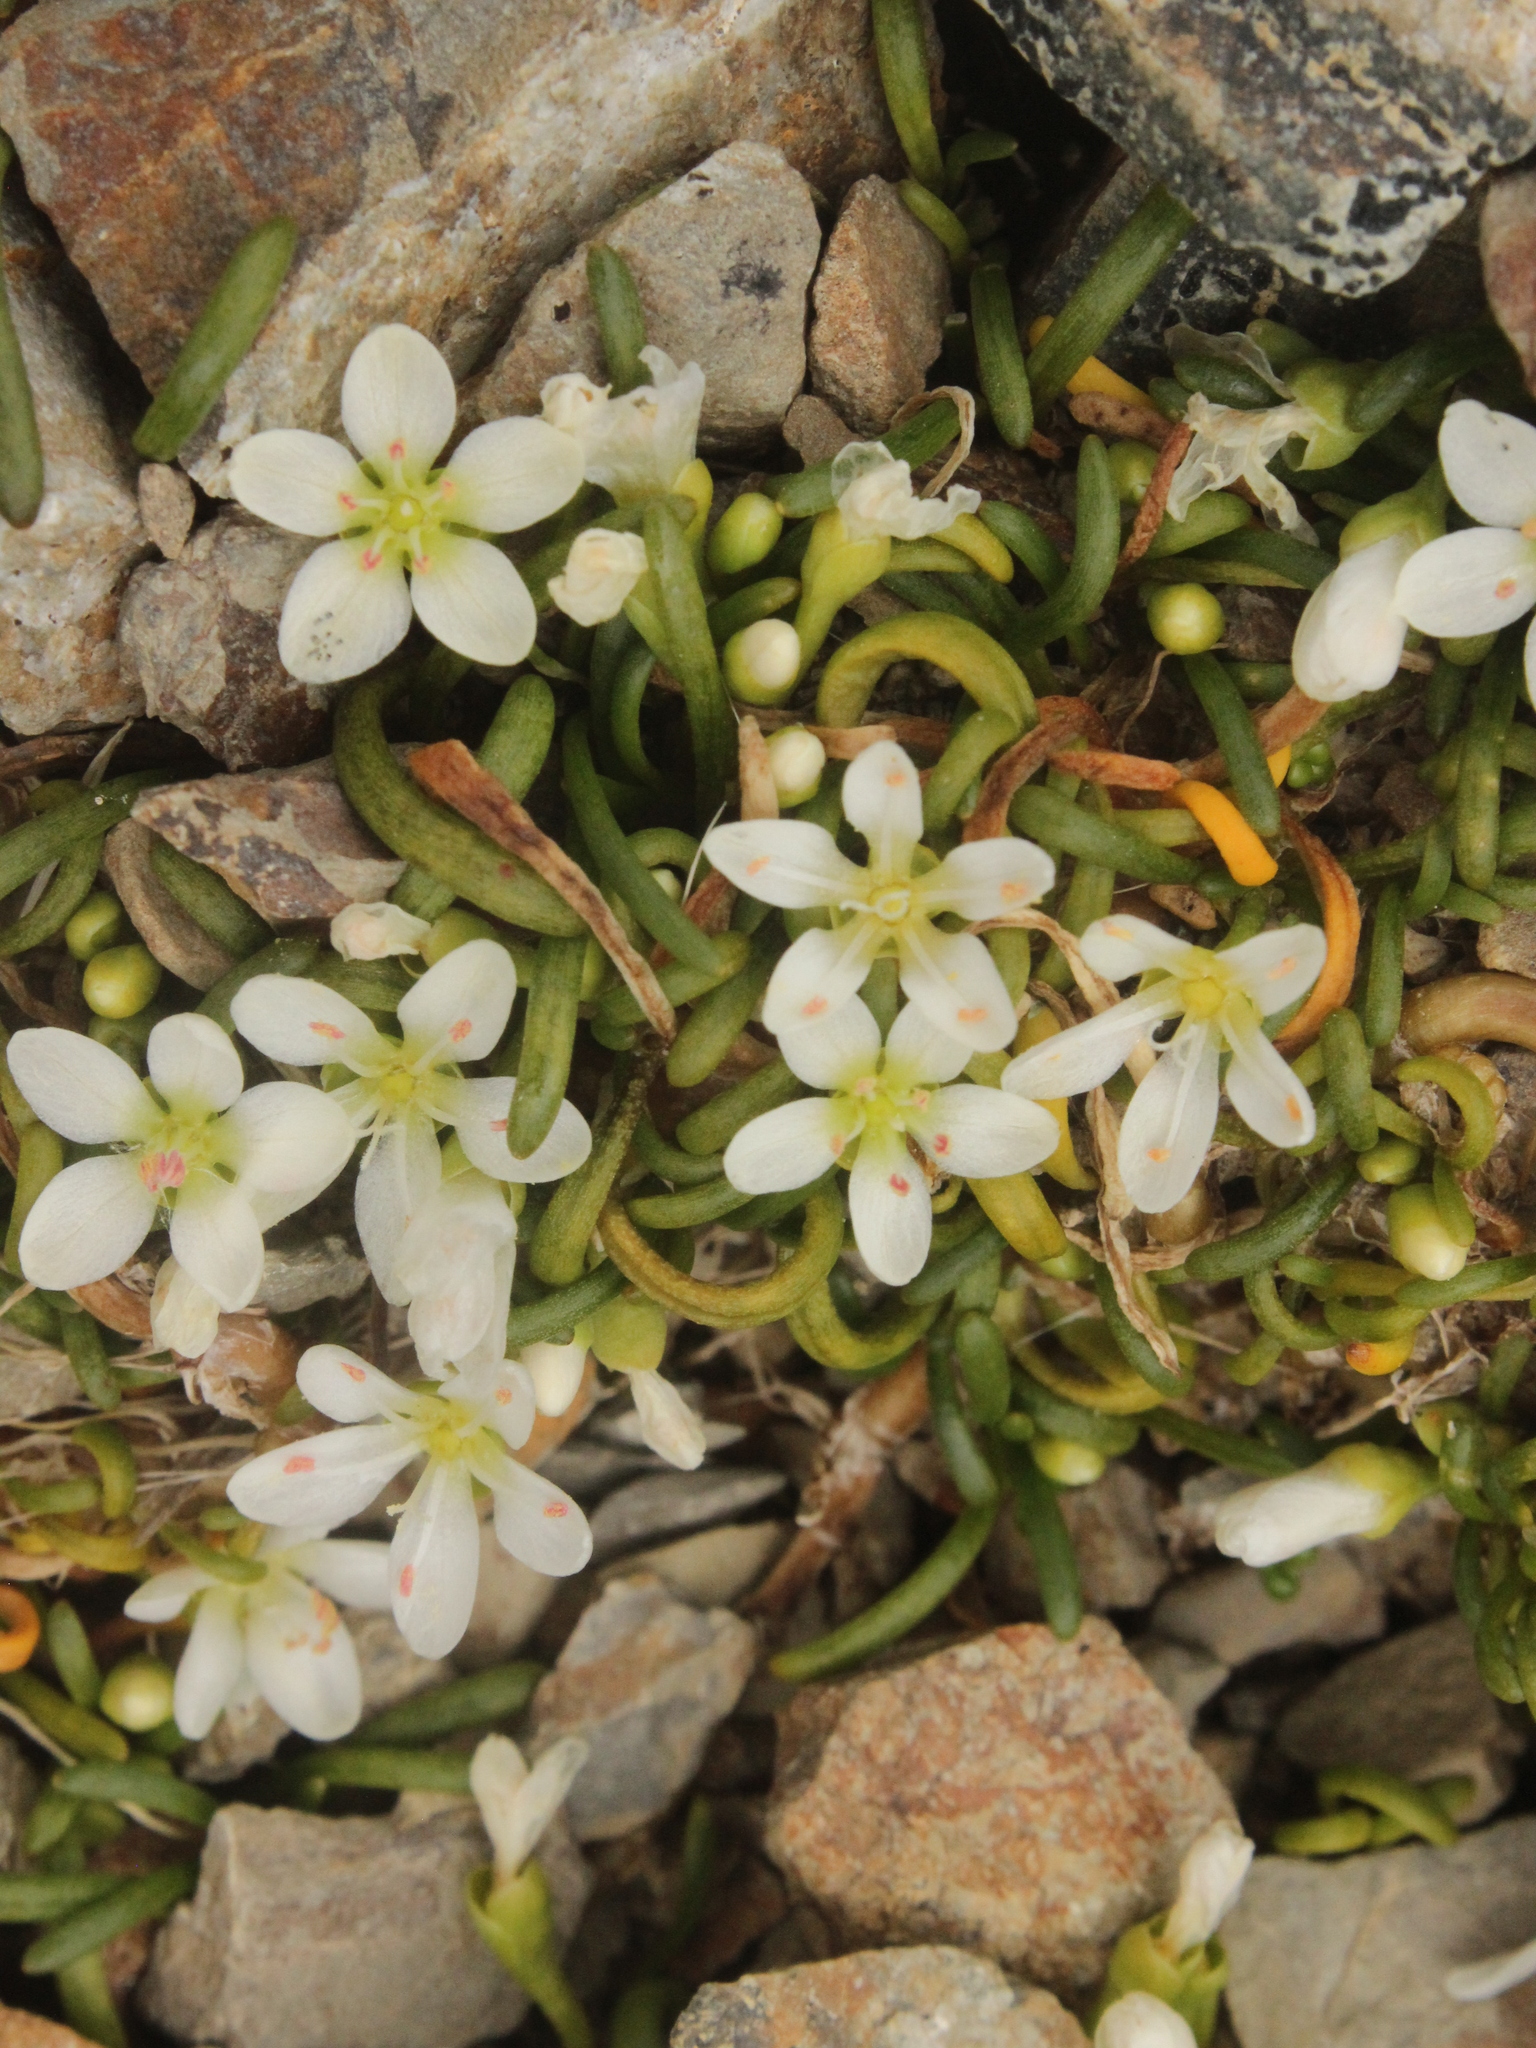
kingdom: Plantae
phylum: Tracheophyta
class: Magnoliopsida
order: Caryophyllales
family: Montiaceae
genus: Montia
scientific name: Montia calycina
